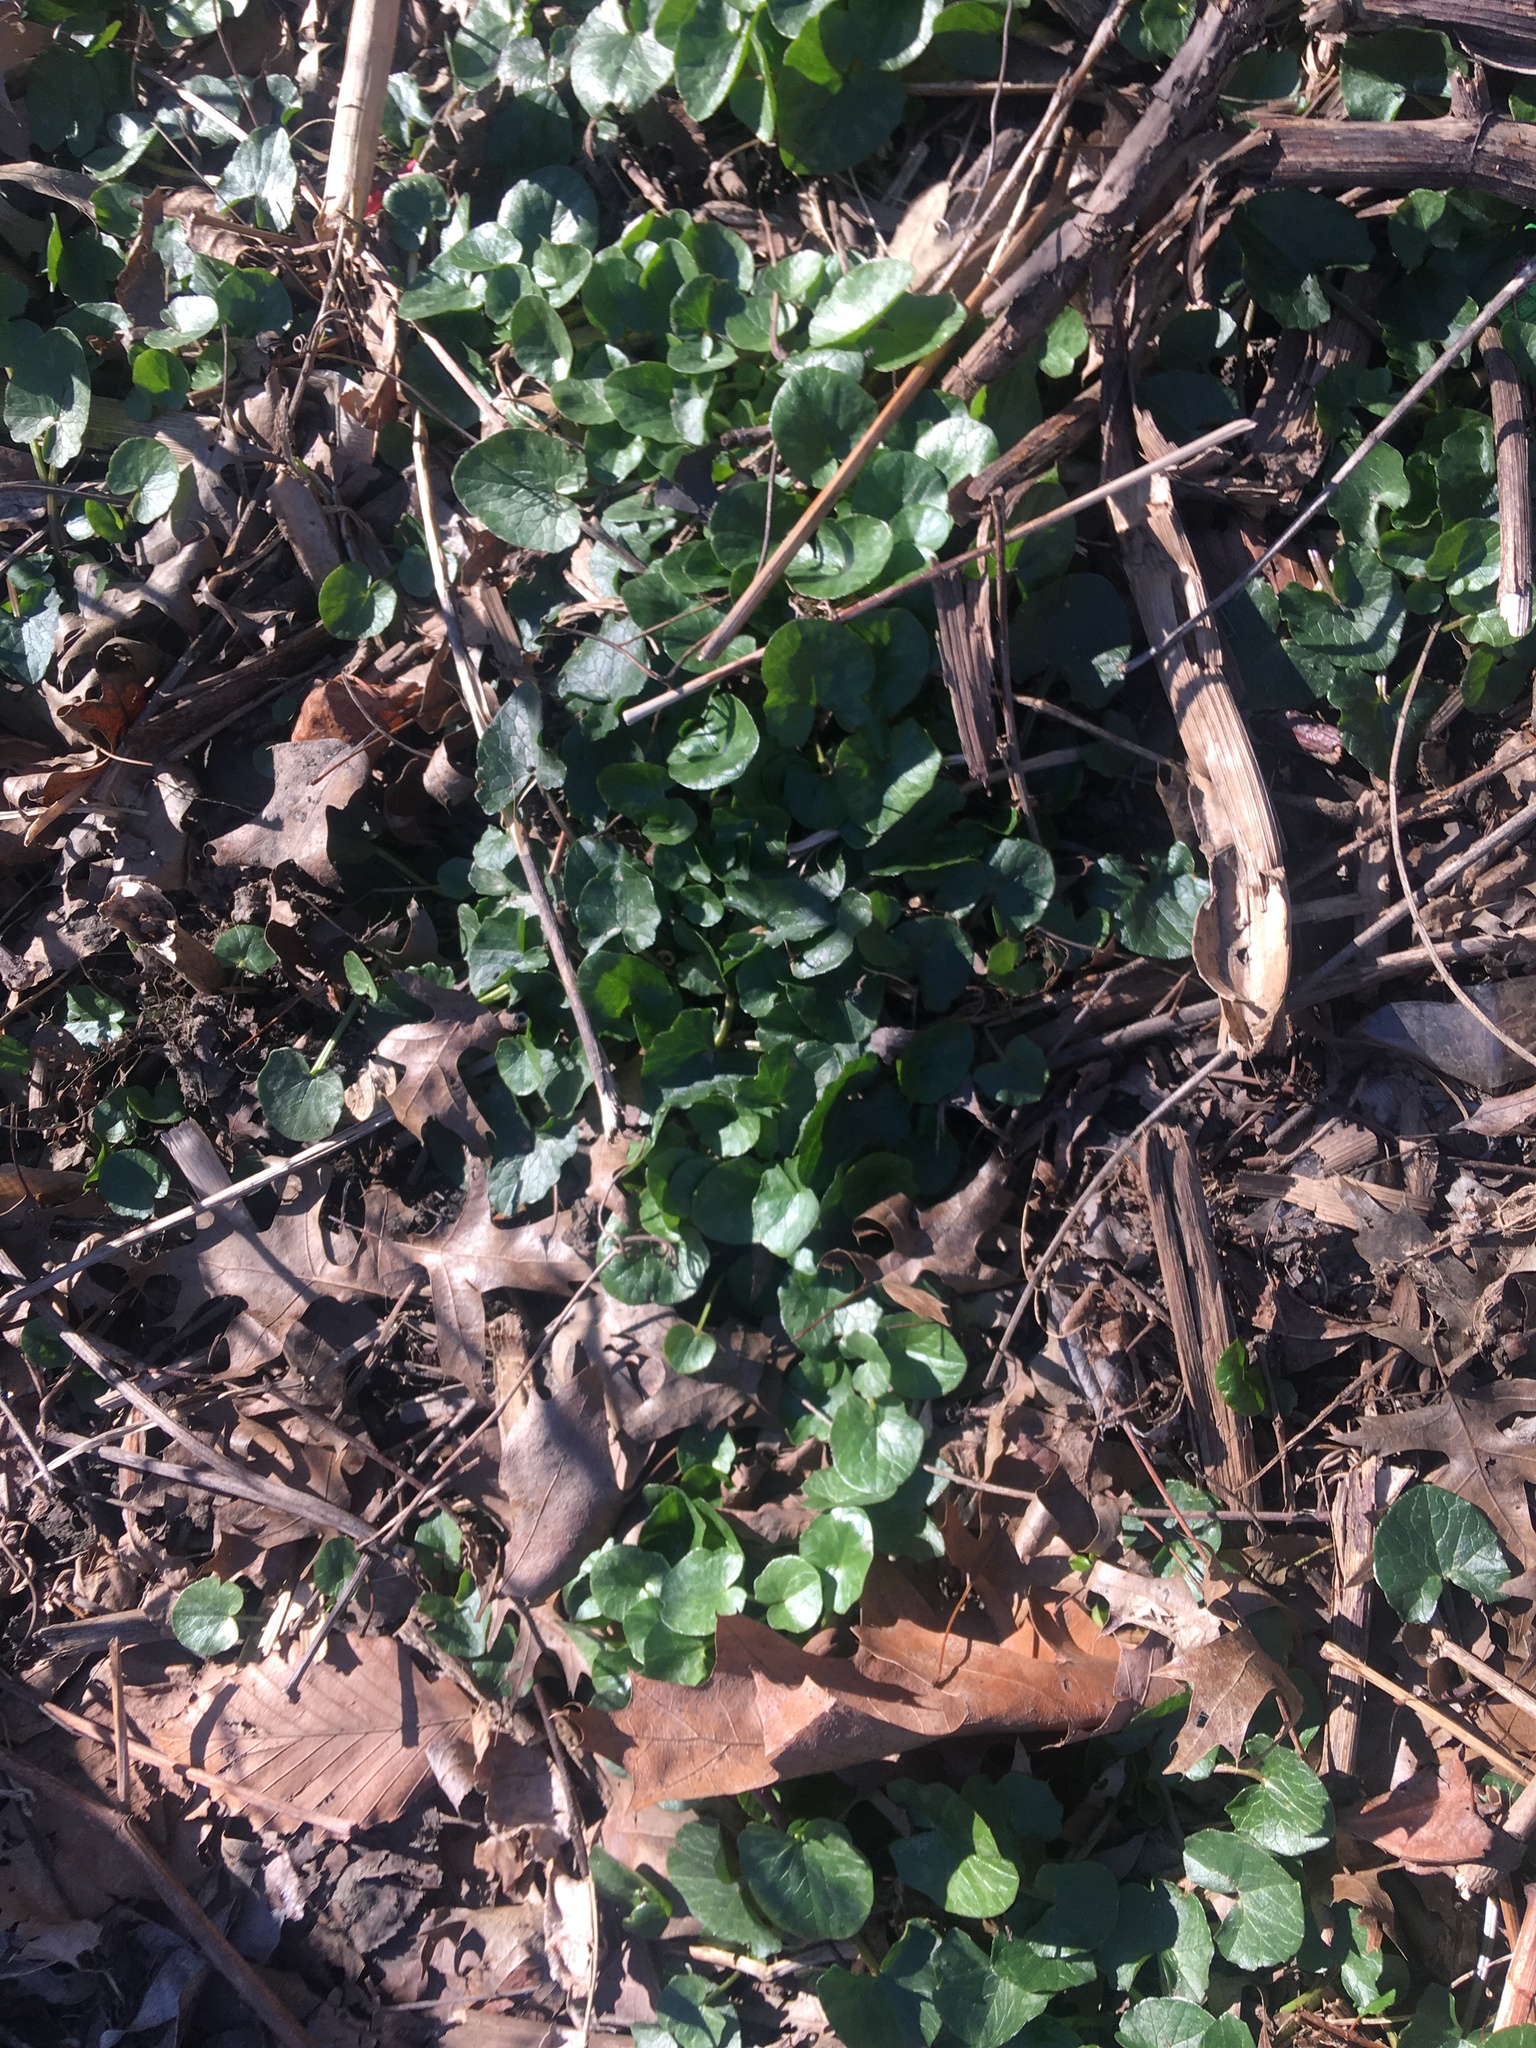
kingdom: Plantae
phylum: Tracheophyta
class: Magnoliopsida
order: Ranunculales
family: Ranunculaceae
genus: Ficaria
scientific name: Ficaria verna
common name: Lesser celandine
